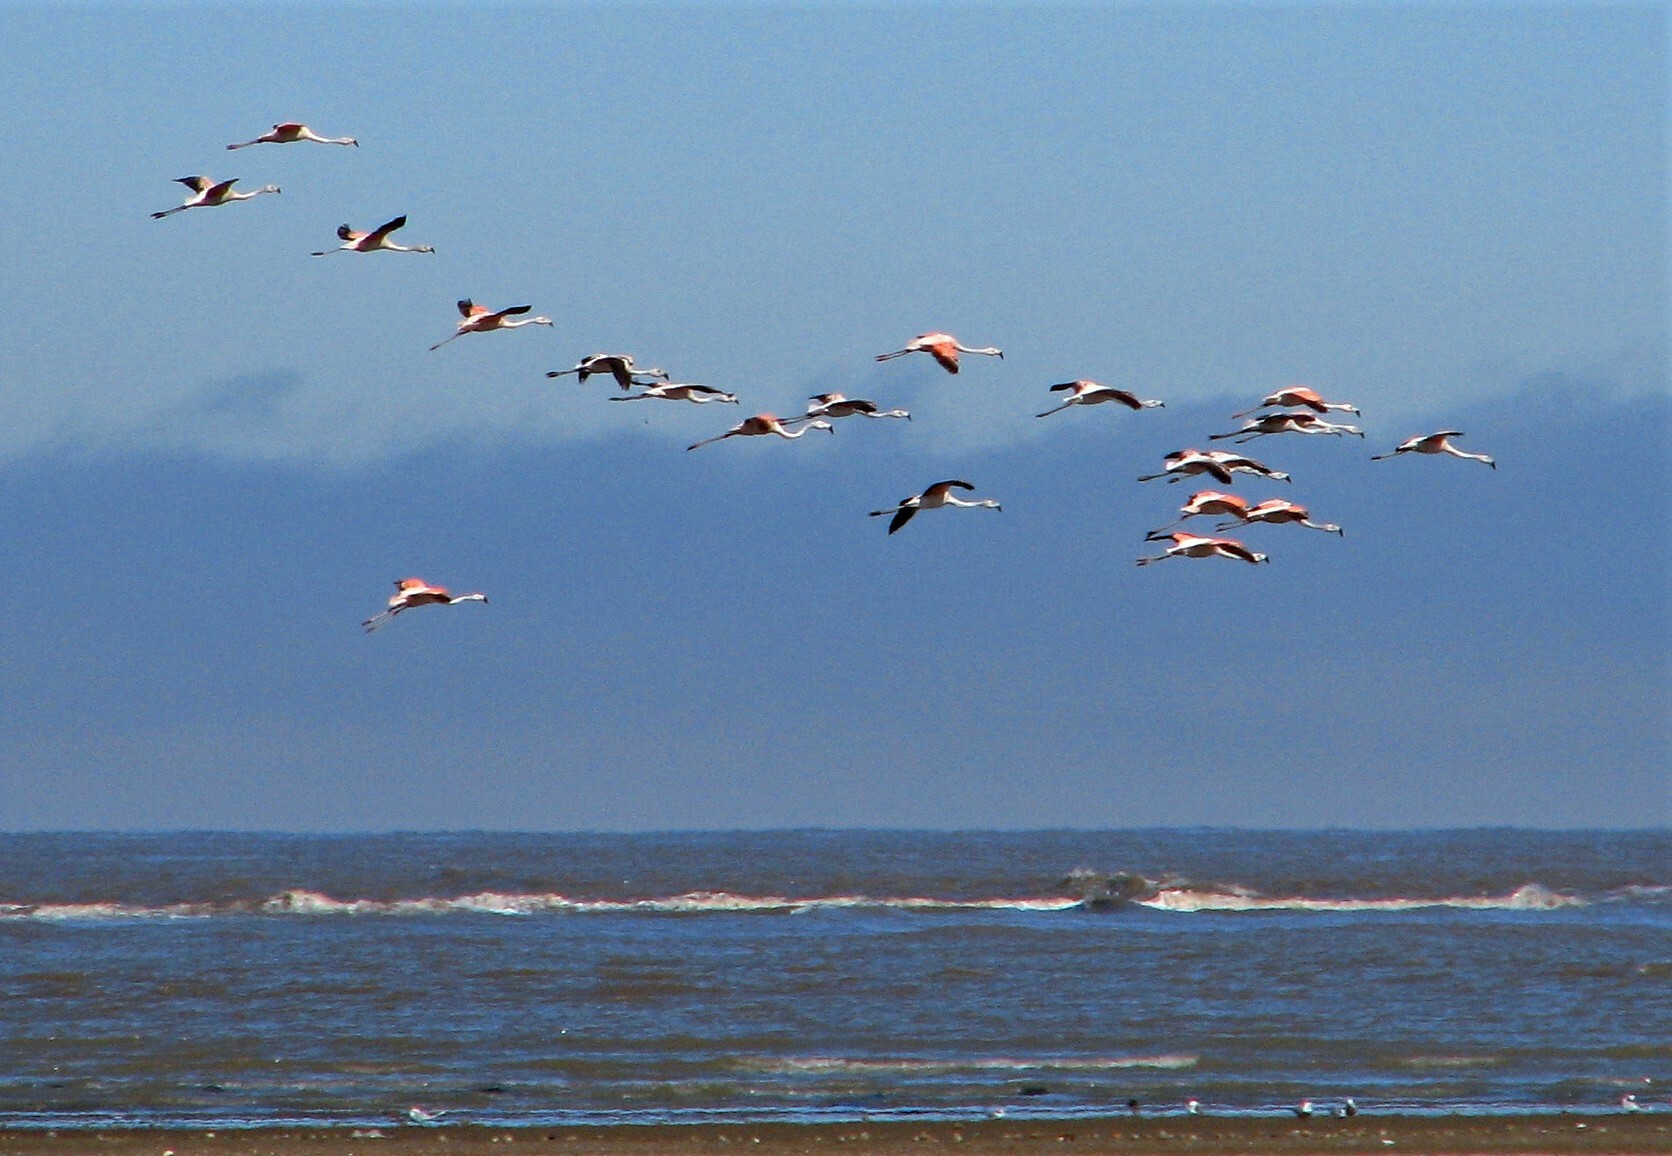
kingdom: Animalia
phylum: Chordata
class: Aves
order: Phoenicopteriformes
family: Phoenicopteridae
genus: Phoenicopterus
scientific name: Phoenicopterus chilensis
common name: Chilean flamingo
